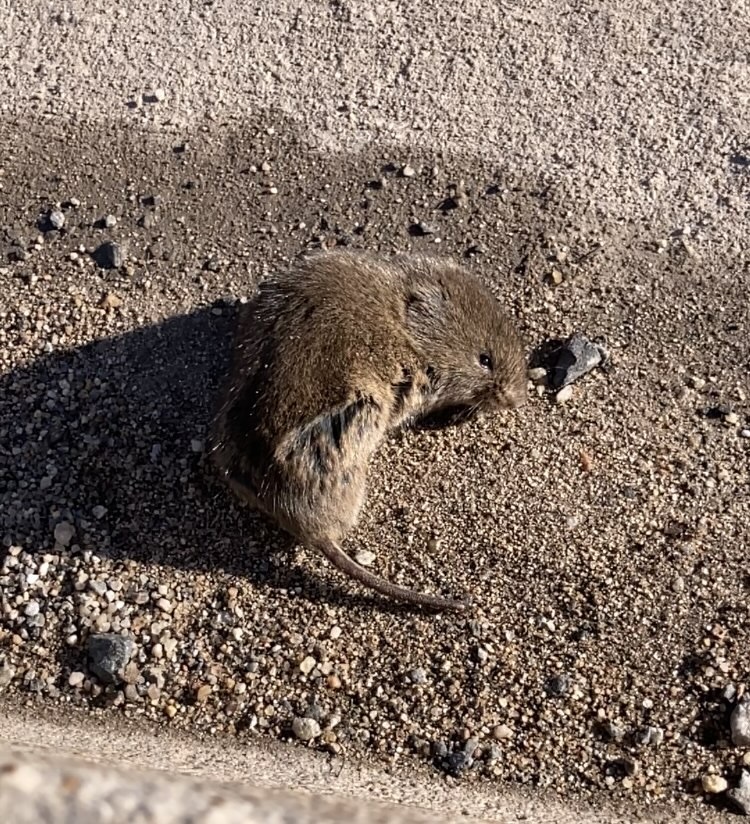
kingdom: Animalia
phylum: Chordata
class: Mammalia
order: Rodentia
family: Cricetidae
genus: Microtus
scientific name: Microtus pennsylvanicus
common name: Meadow vole
